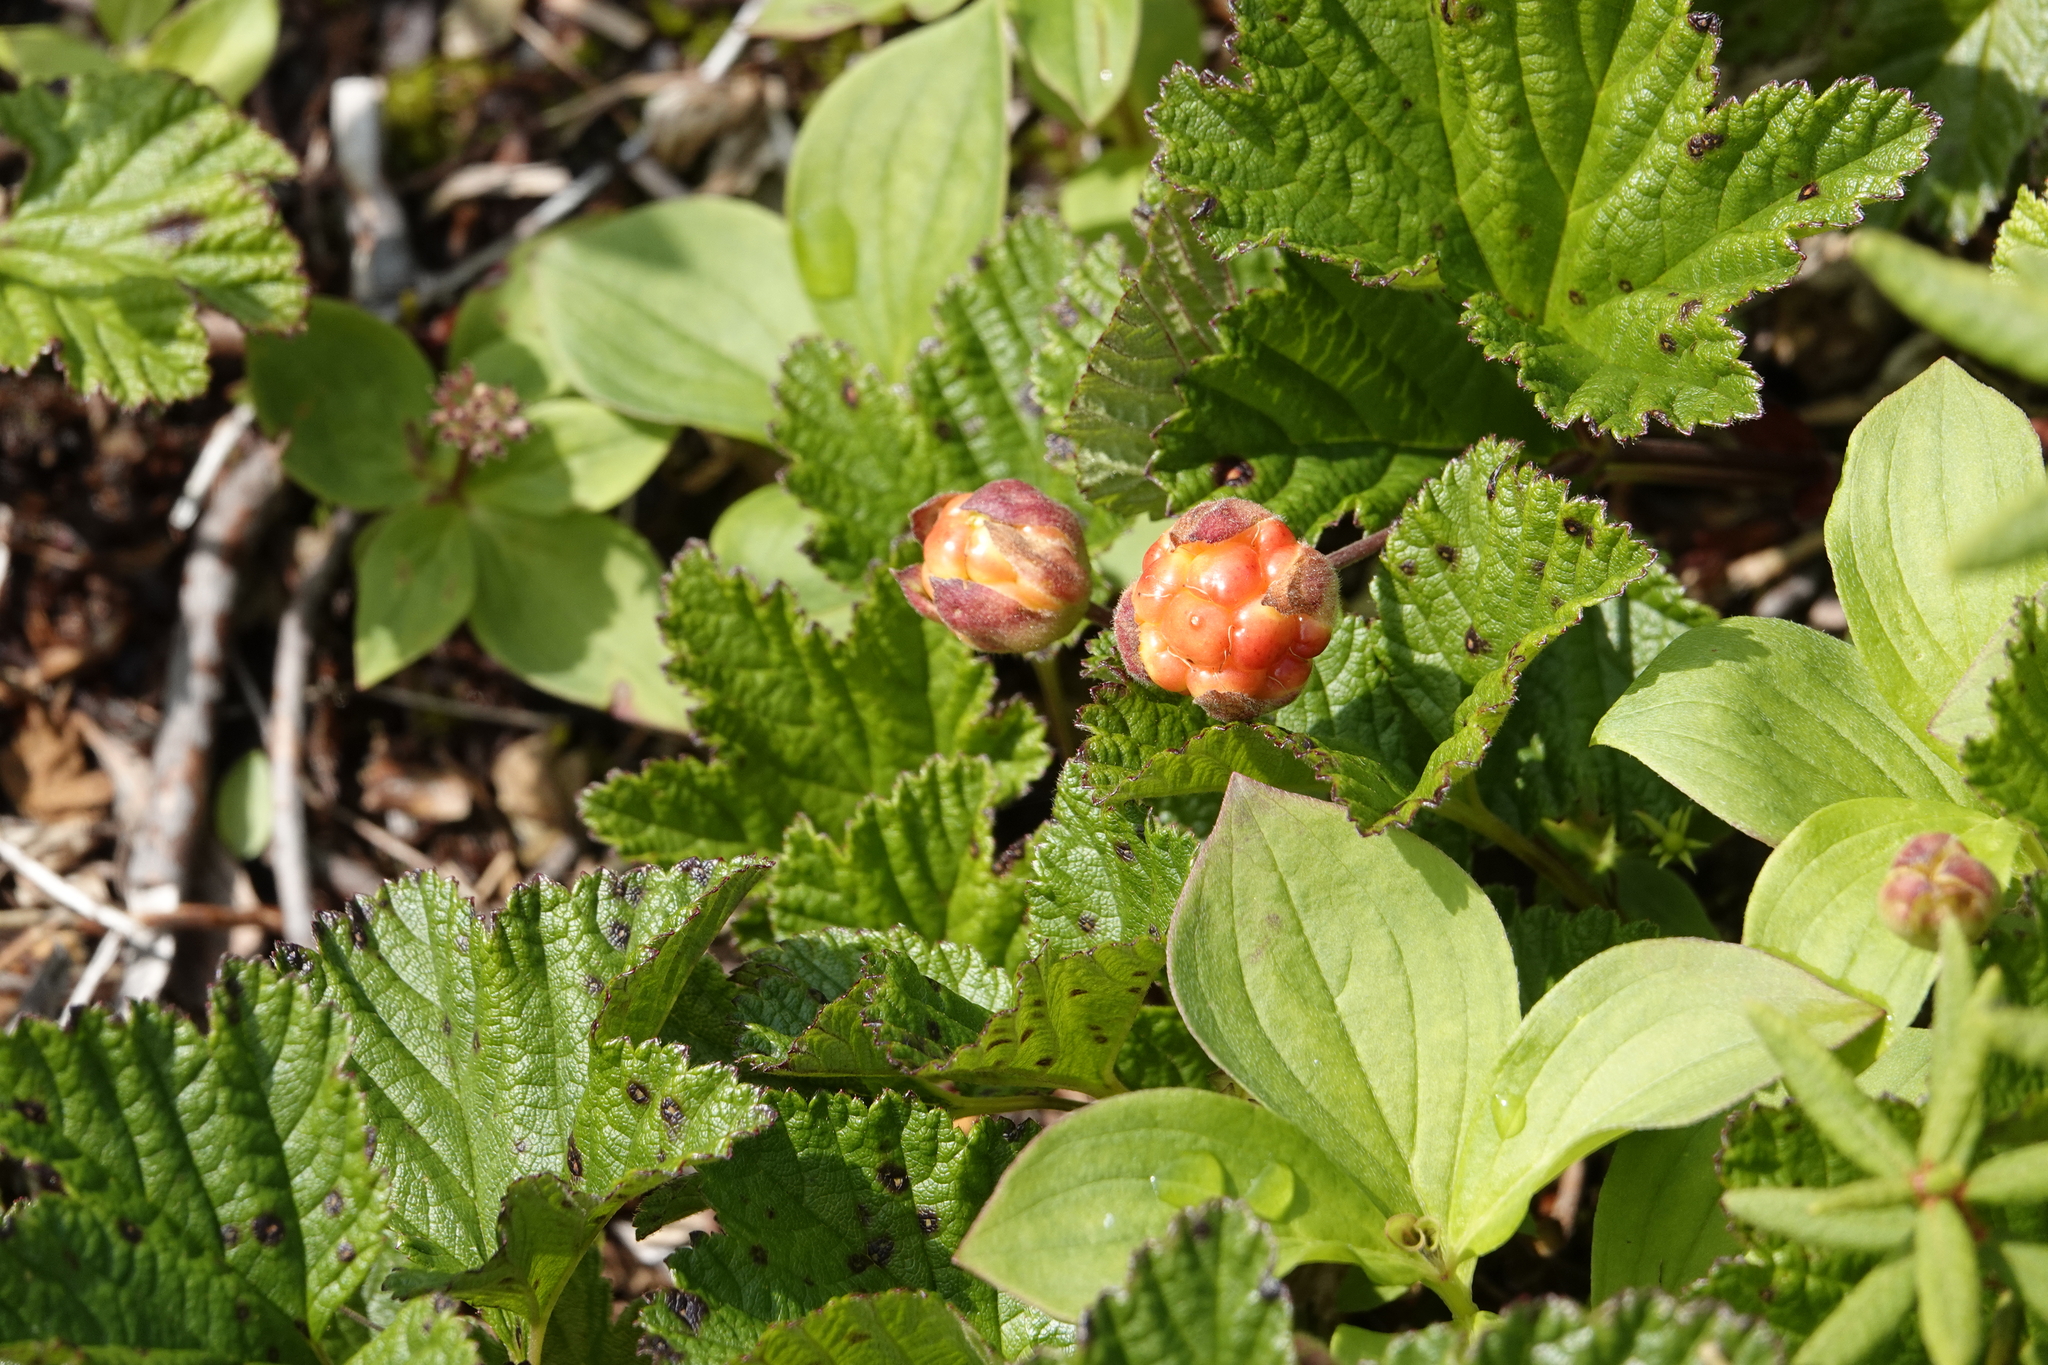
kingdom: Plantae
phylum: Tracheophyta
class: Magnoliopsida
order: Rosales
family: Rosaceae
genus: Rubus
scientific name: Rubus chamaemorus
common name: Cloudberry
